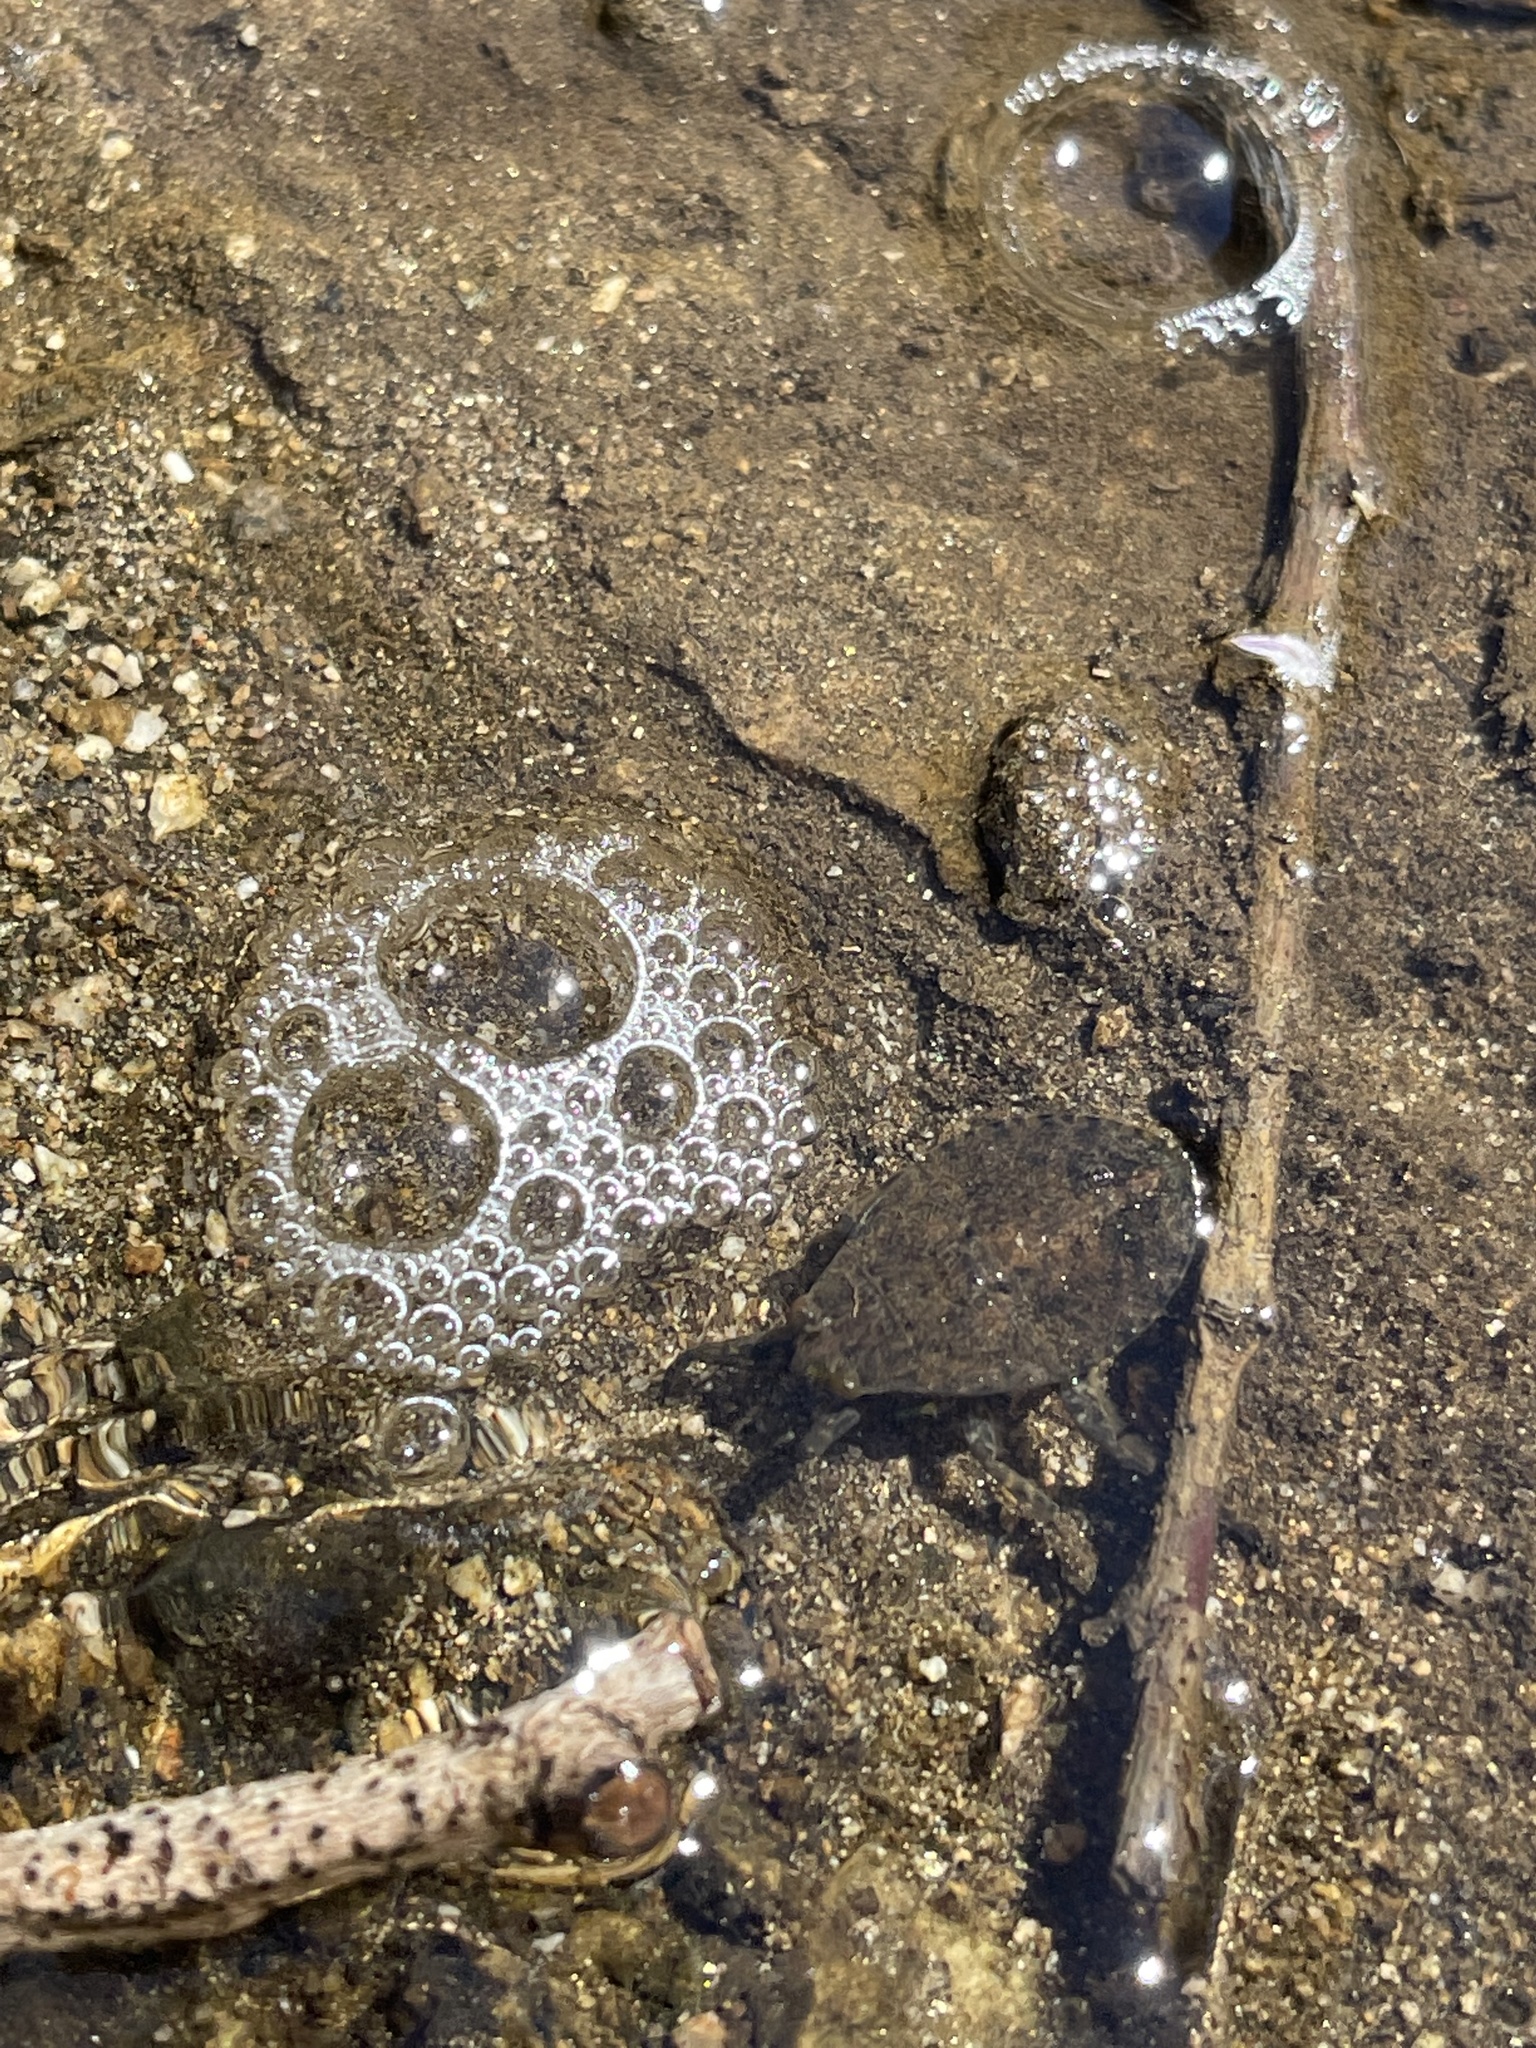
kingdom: Animalia
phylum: Arthropoda
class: Insecta
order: Hemiptera
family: Belostomatidae
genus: Abedus
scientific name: Abedus indentatus
